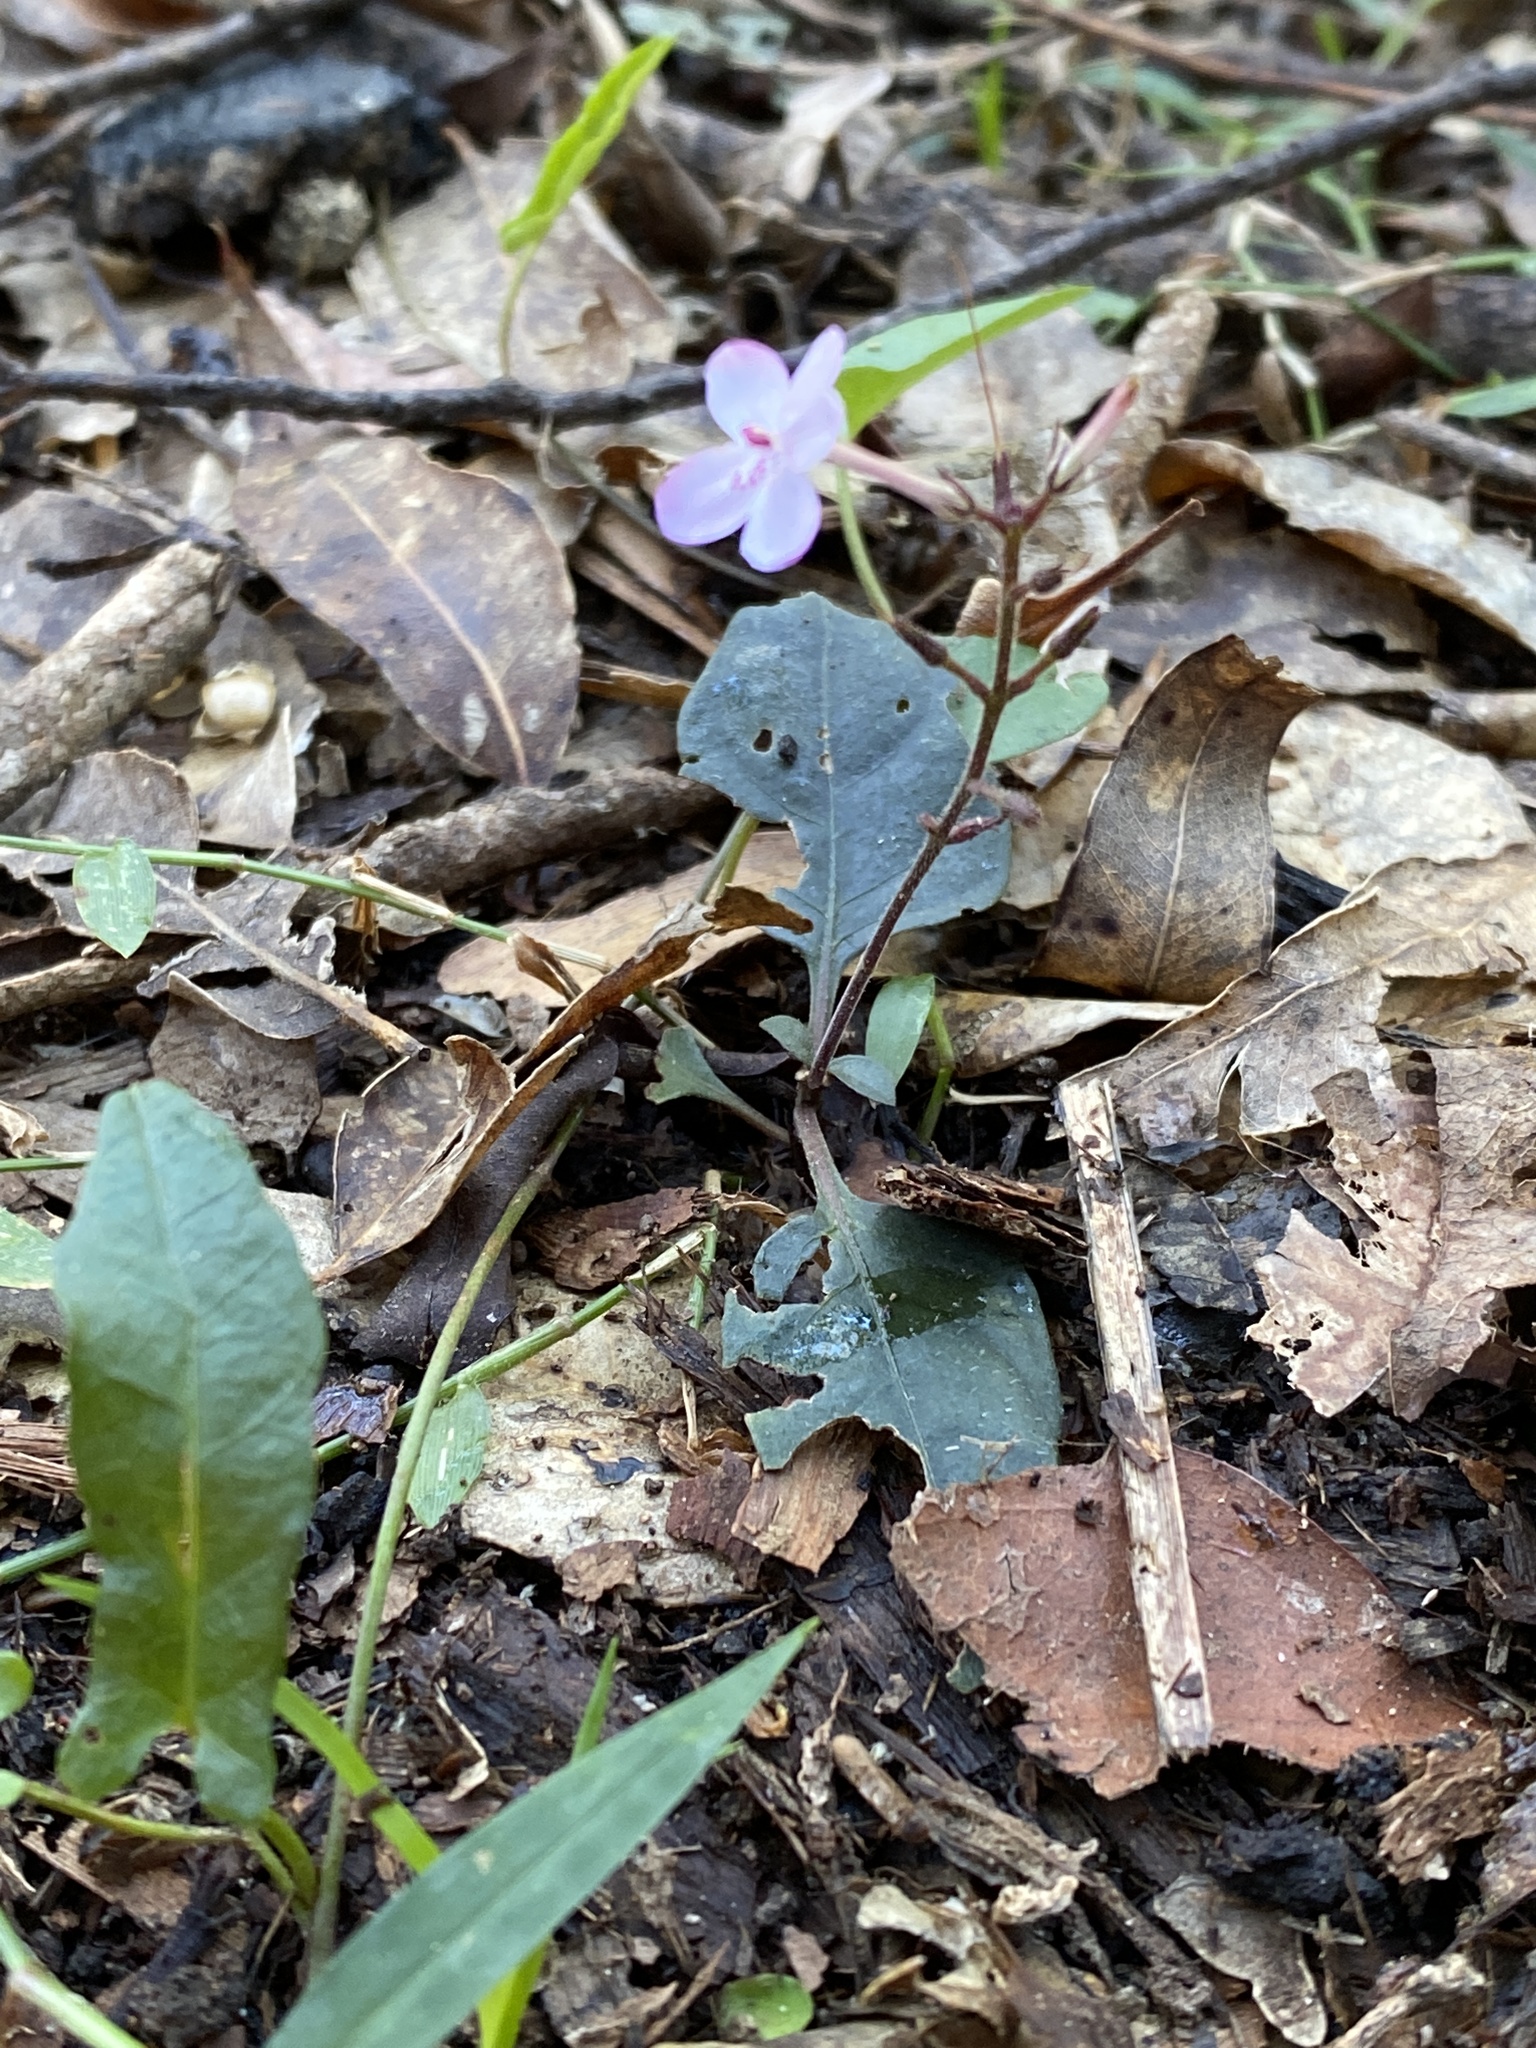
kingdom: Plantae
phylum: Tracheophyta
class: Magnoliopsida
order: Lamiales
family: Acanthaceae
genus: Pseuderanthemum
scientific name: Pseuderanthemum variabile
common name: Night and afternoon
